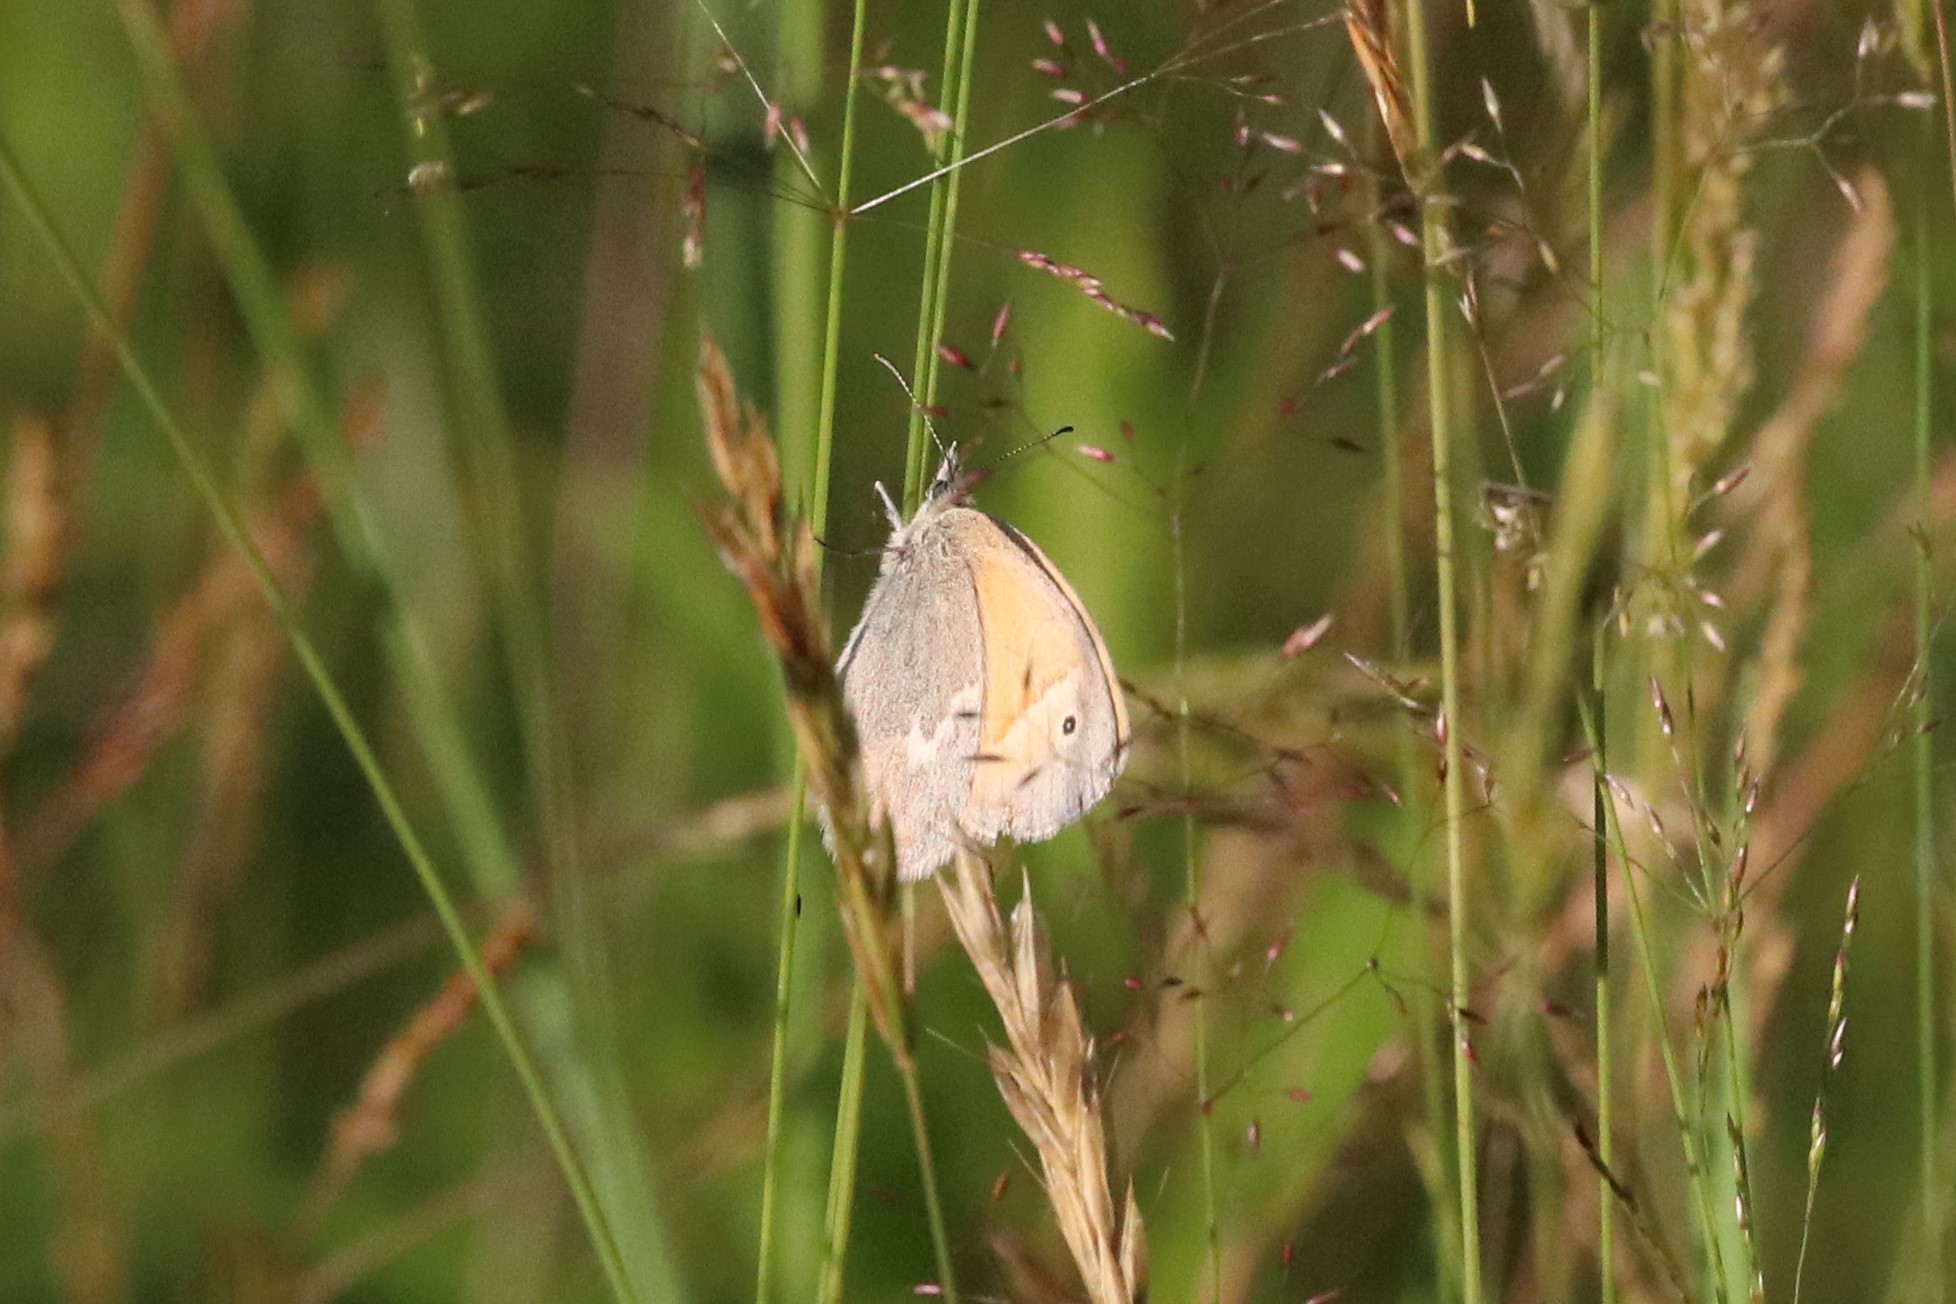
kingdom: Animalia
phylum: Arthropoda
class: Insecta
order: Lepidoptera
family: Nymphalidae
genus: Coenonympha
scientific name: Coenonympha california
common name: Common ringlet
